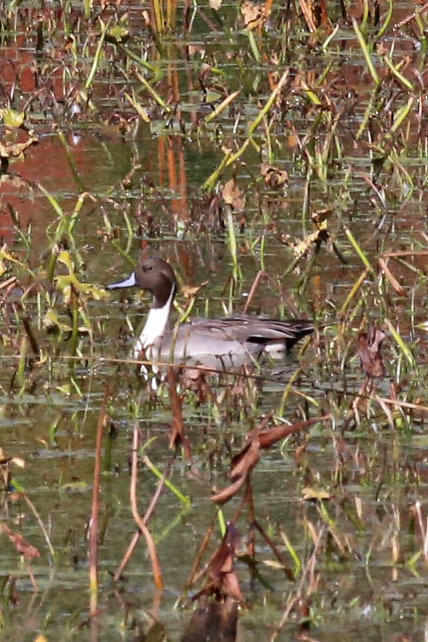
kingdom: Animalia
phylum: Chordata
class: Aves
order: Anseriformes
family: Anatidae
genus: Anas
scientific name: Anas acuta
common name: Northern pintail
